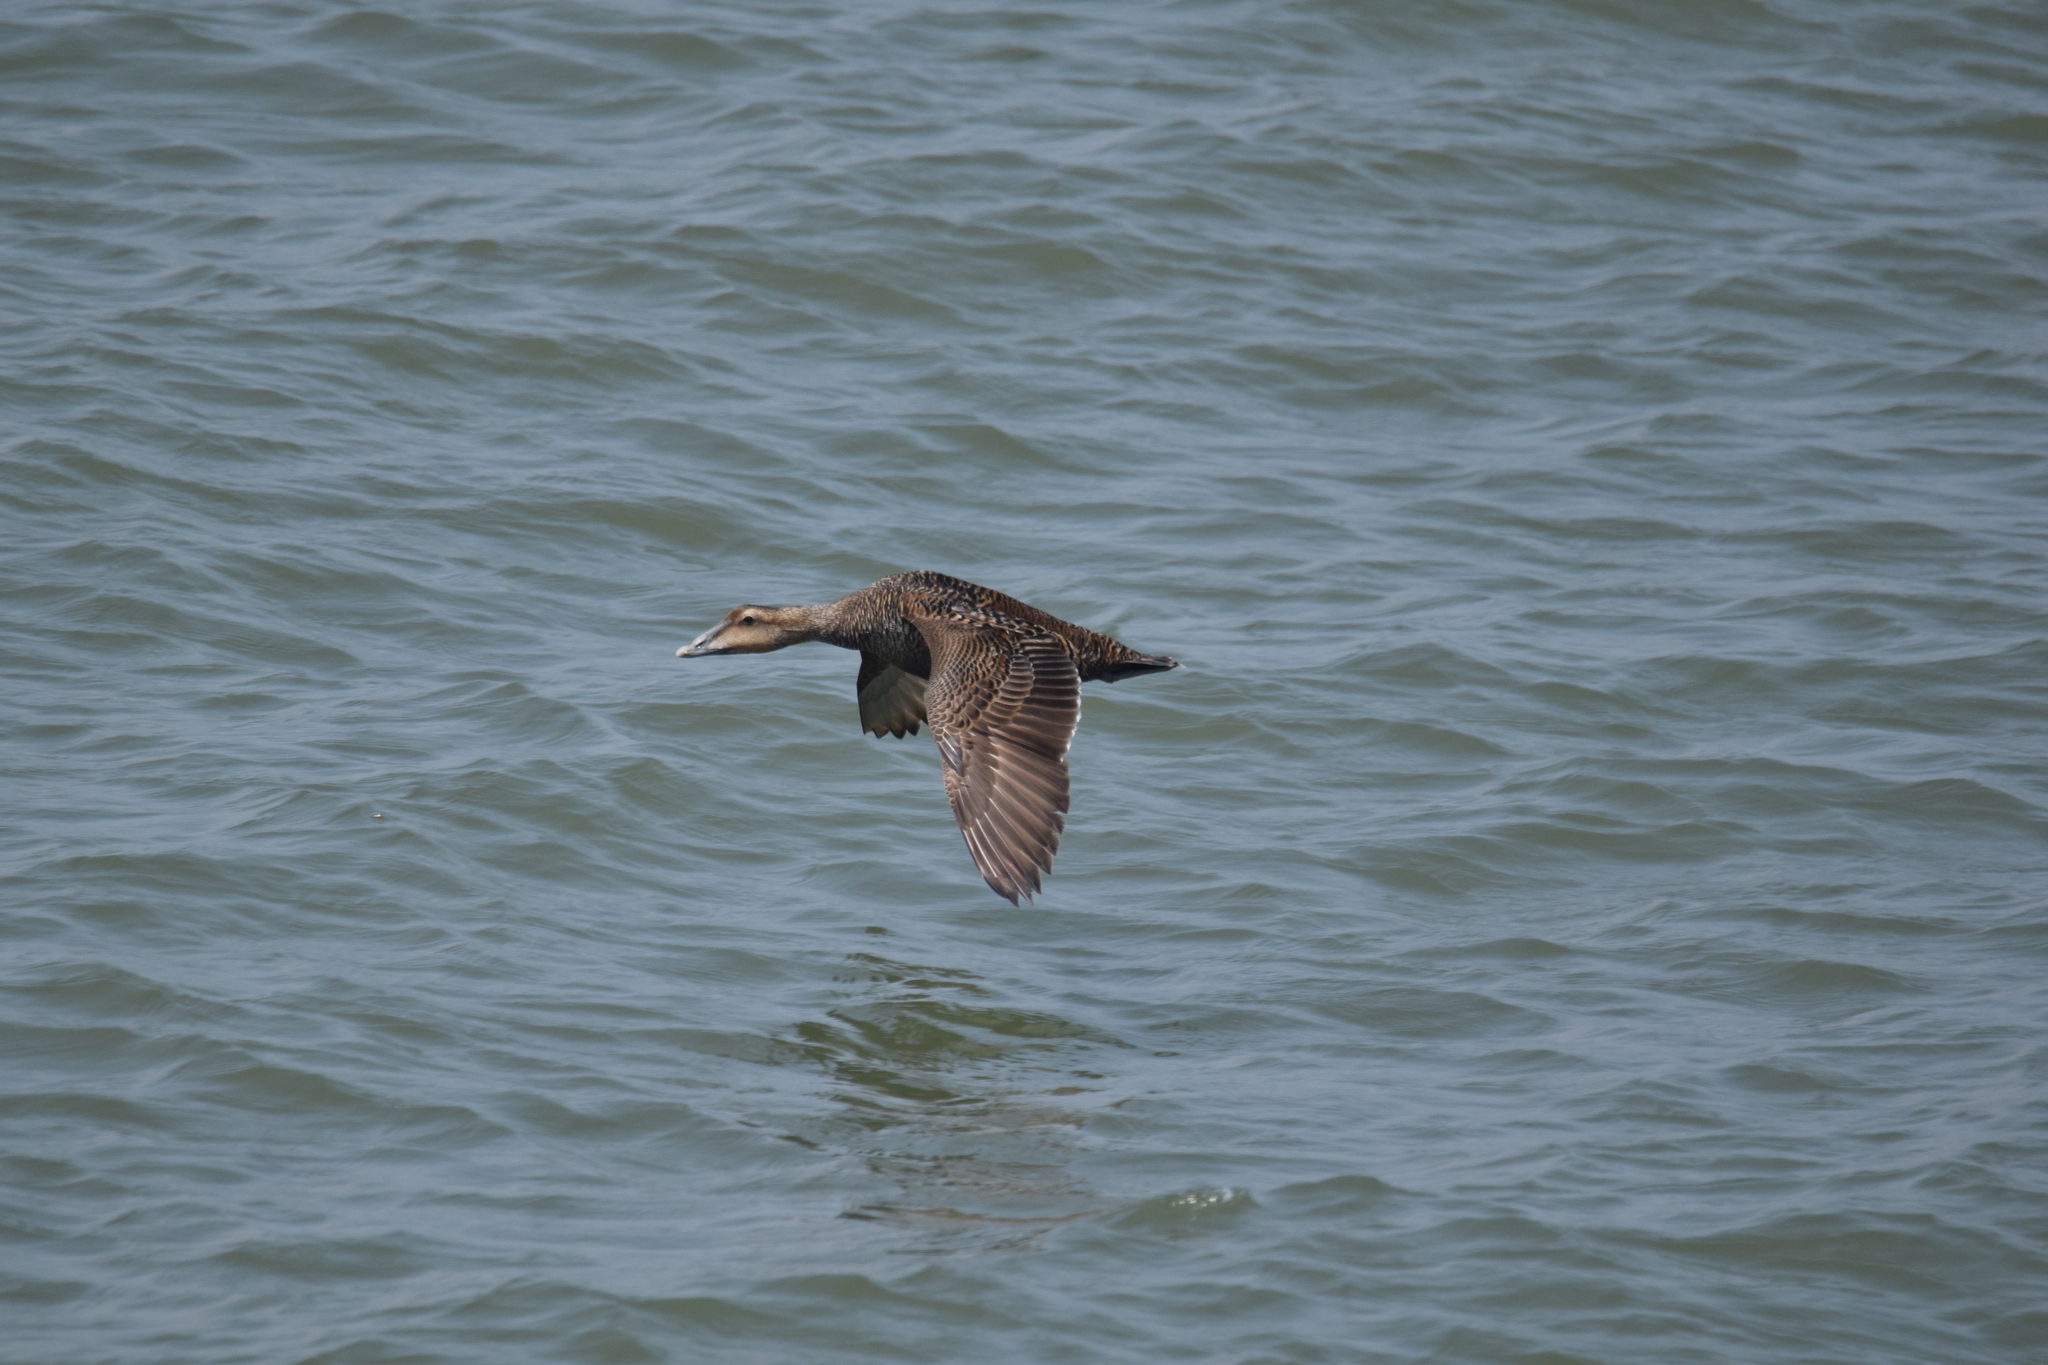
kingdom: Animalia
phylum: Chordata
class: Aves
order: Anseriformes
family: Anatidae
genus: Somateria
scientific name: Somateria mollissima
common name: Common eider
